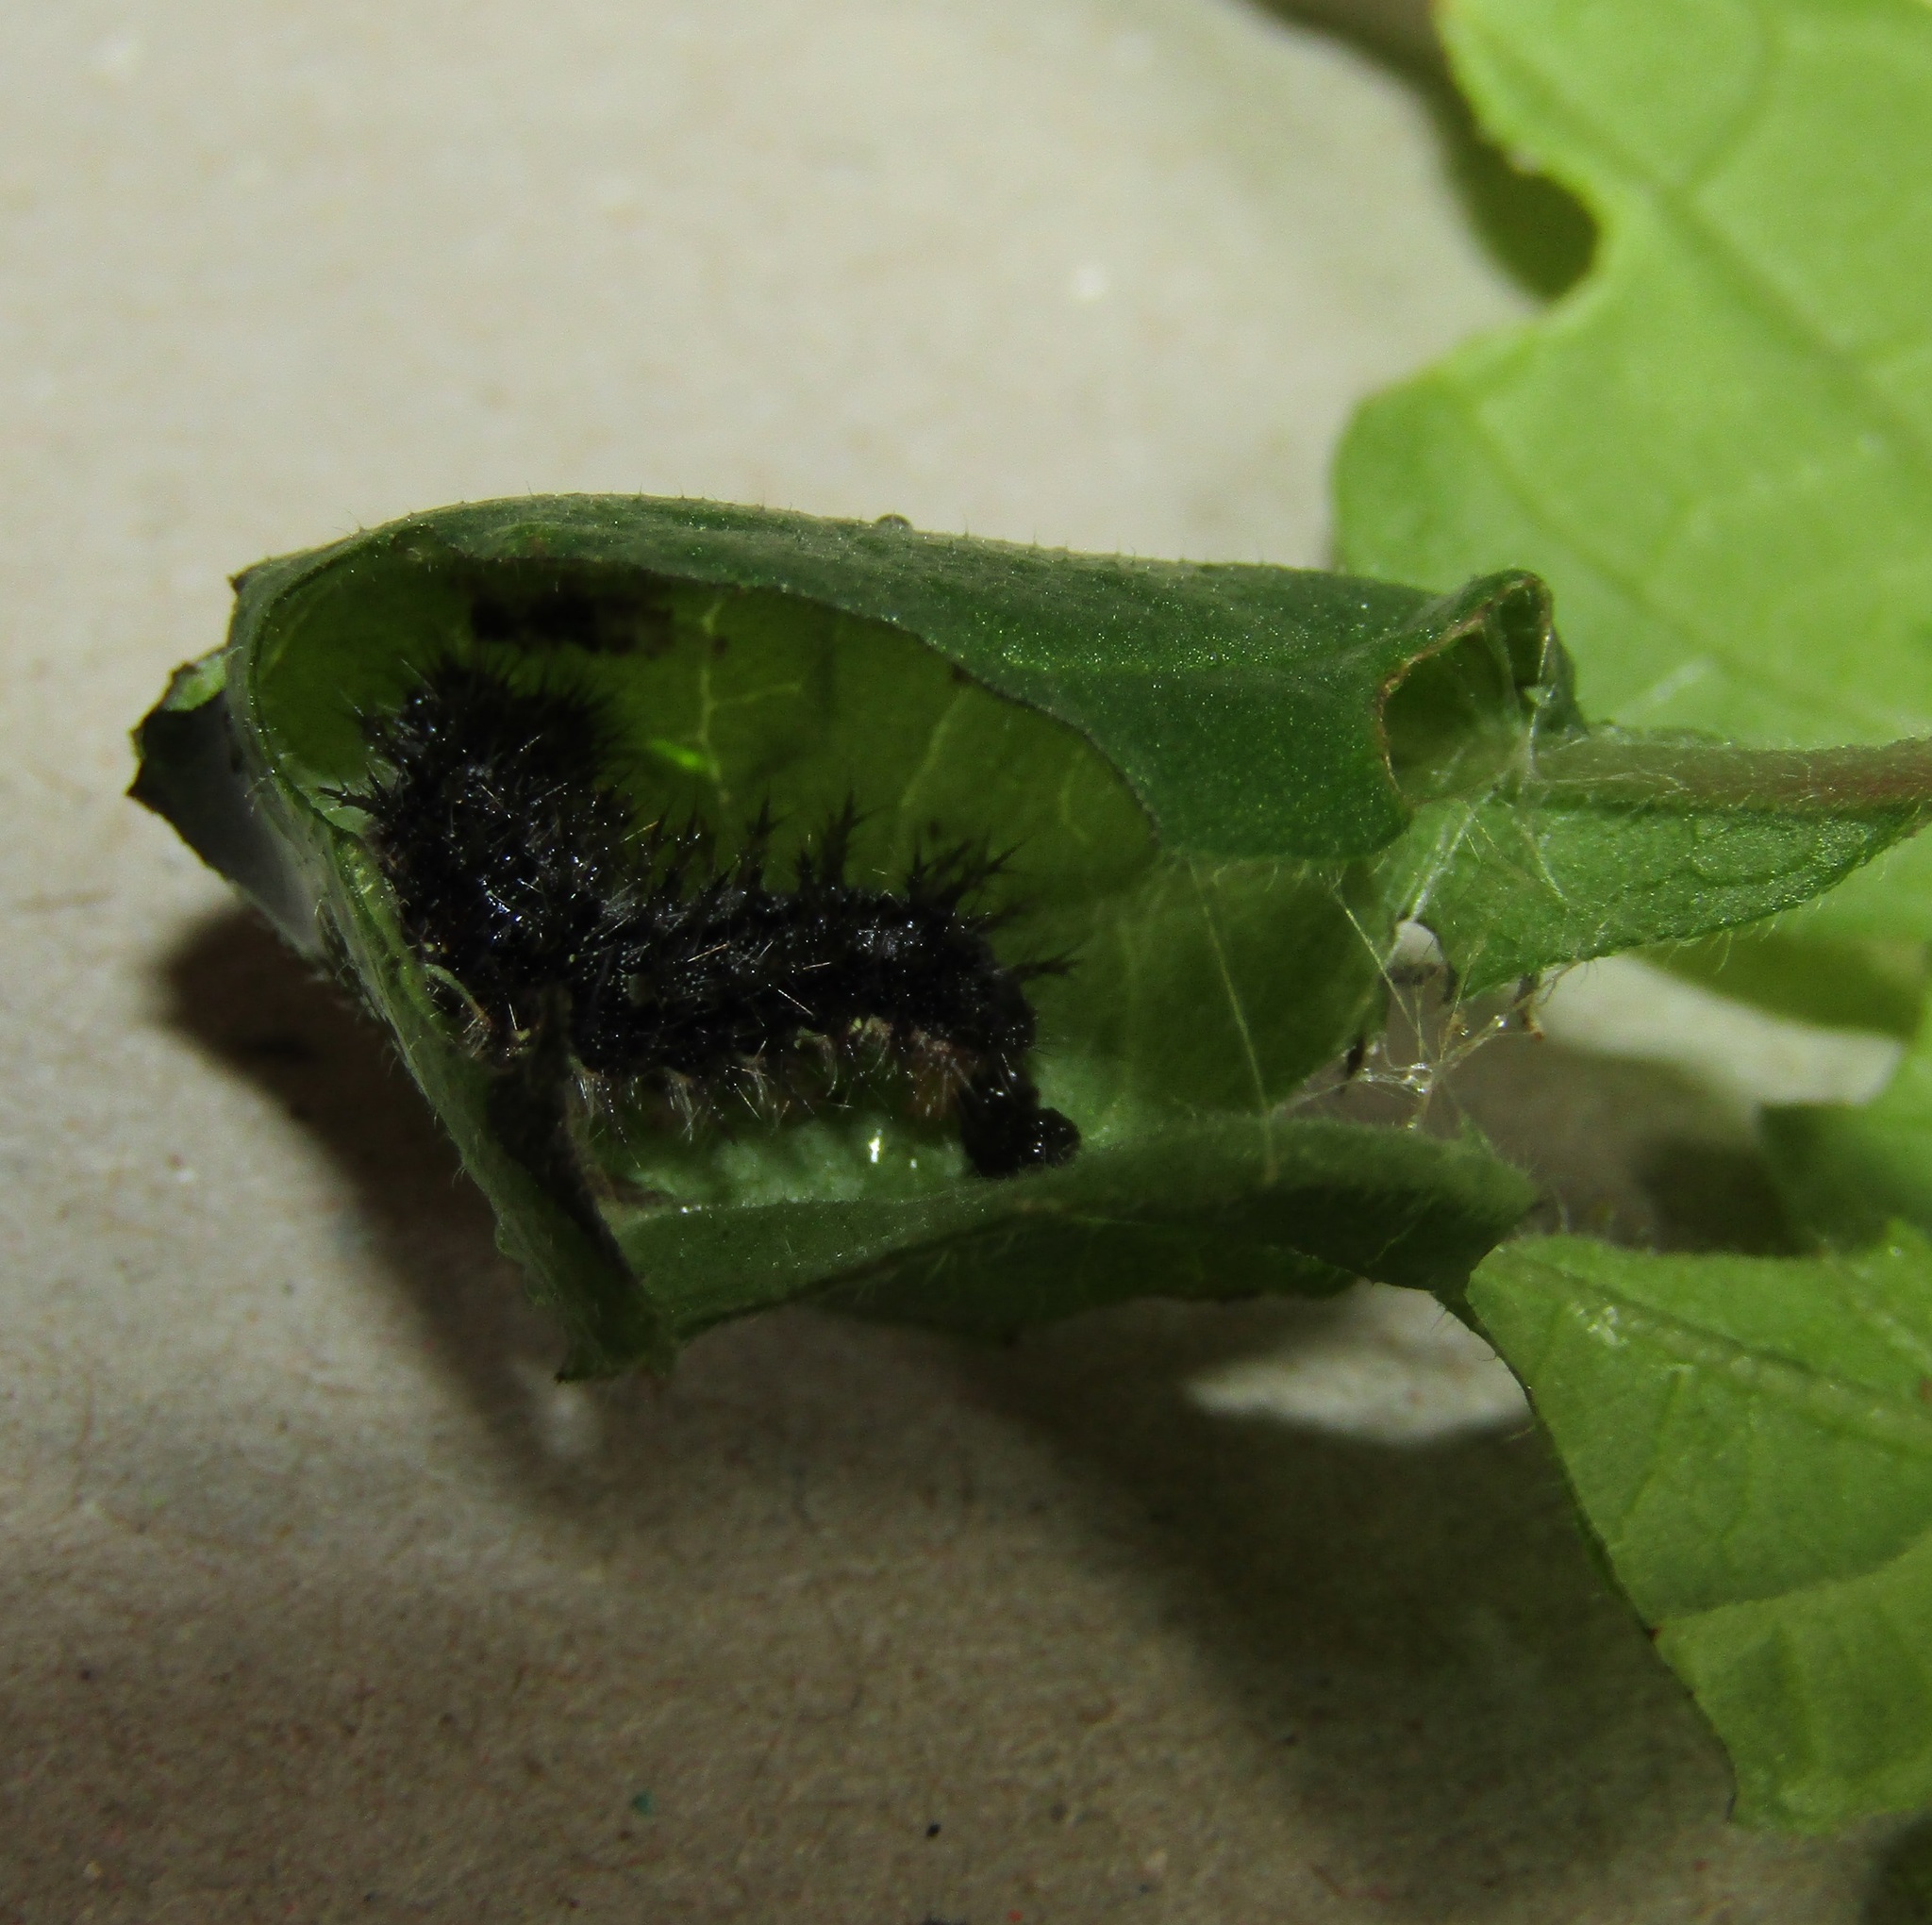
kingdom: Plantae
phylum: Tracheophyta
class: Magnoliopsida
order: Rosales
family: Urticaceae
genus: Parietaria
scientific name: Parietaria judaica
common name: Pellitory-of-the-wall
